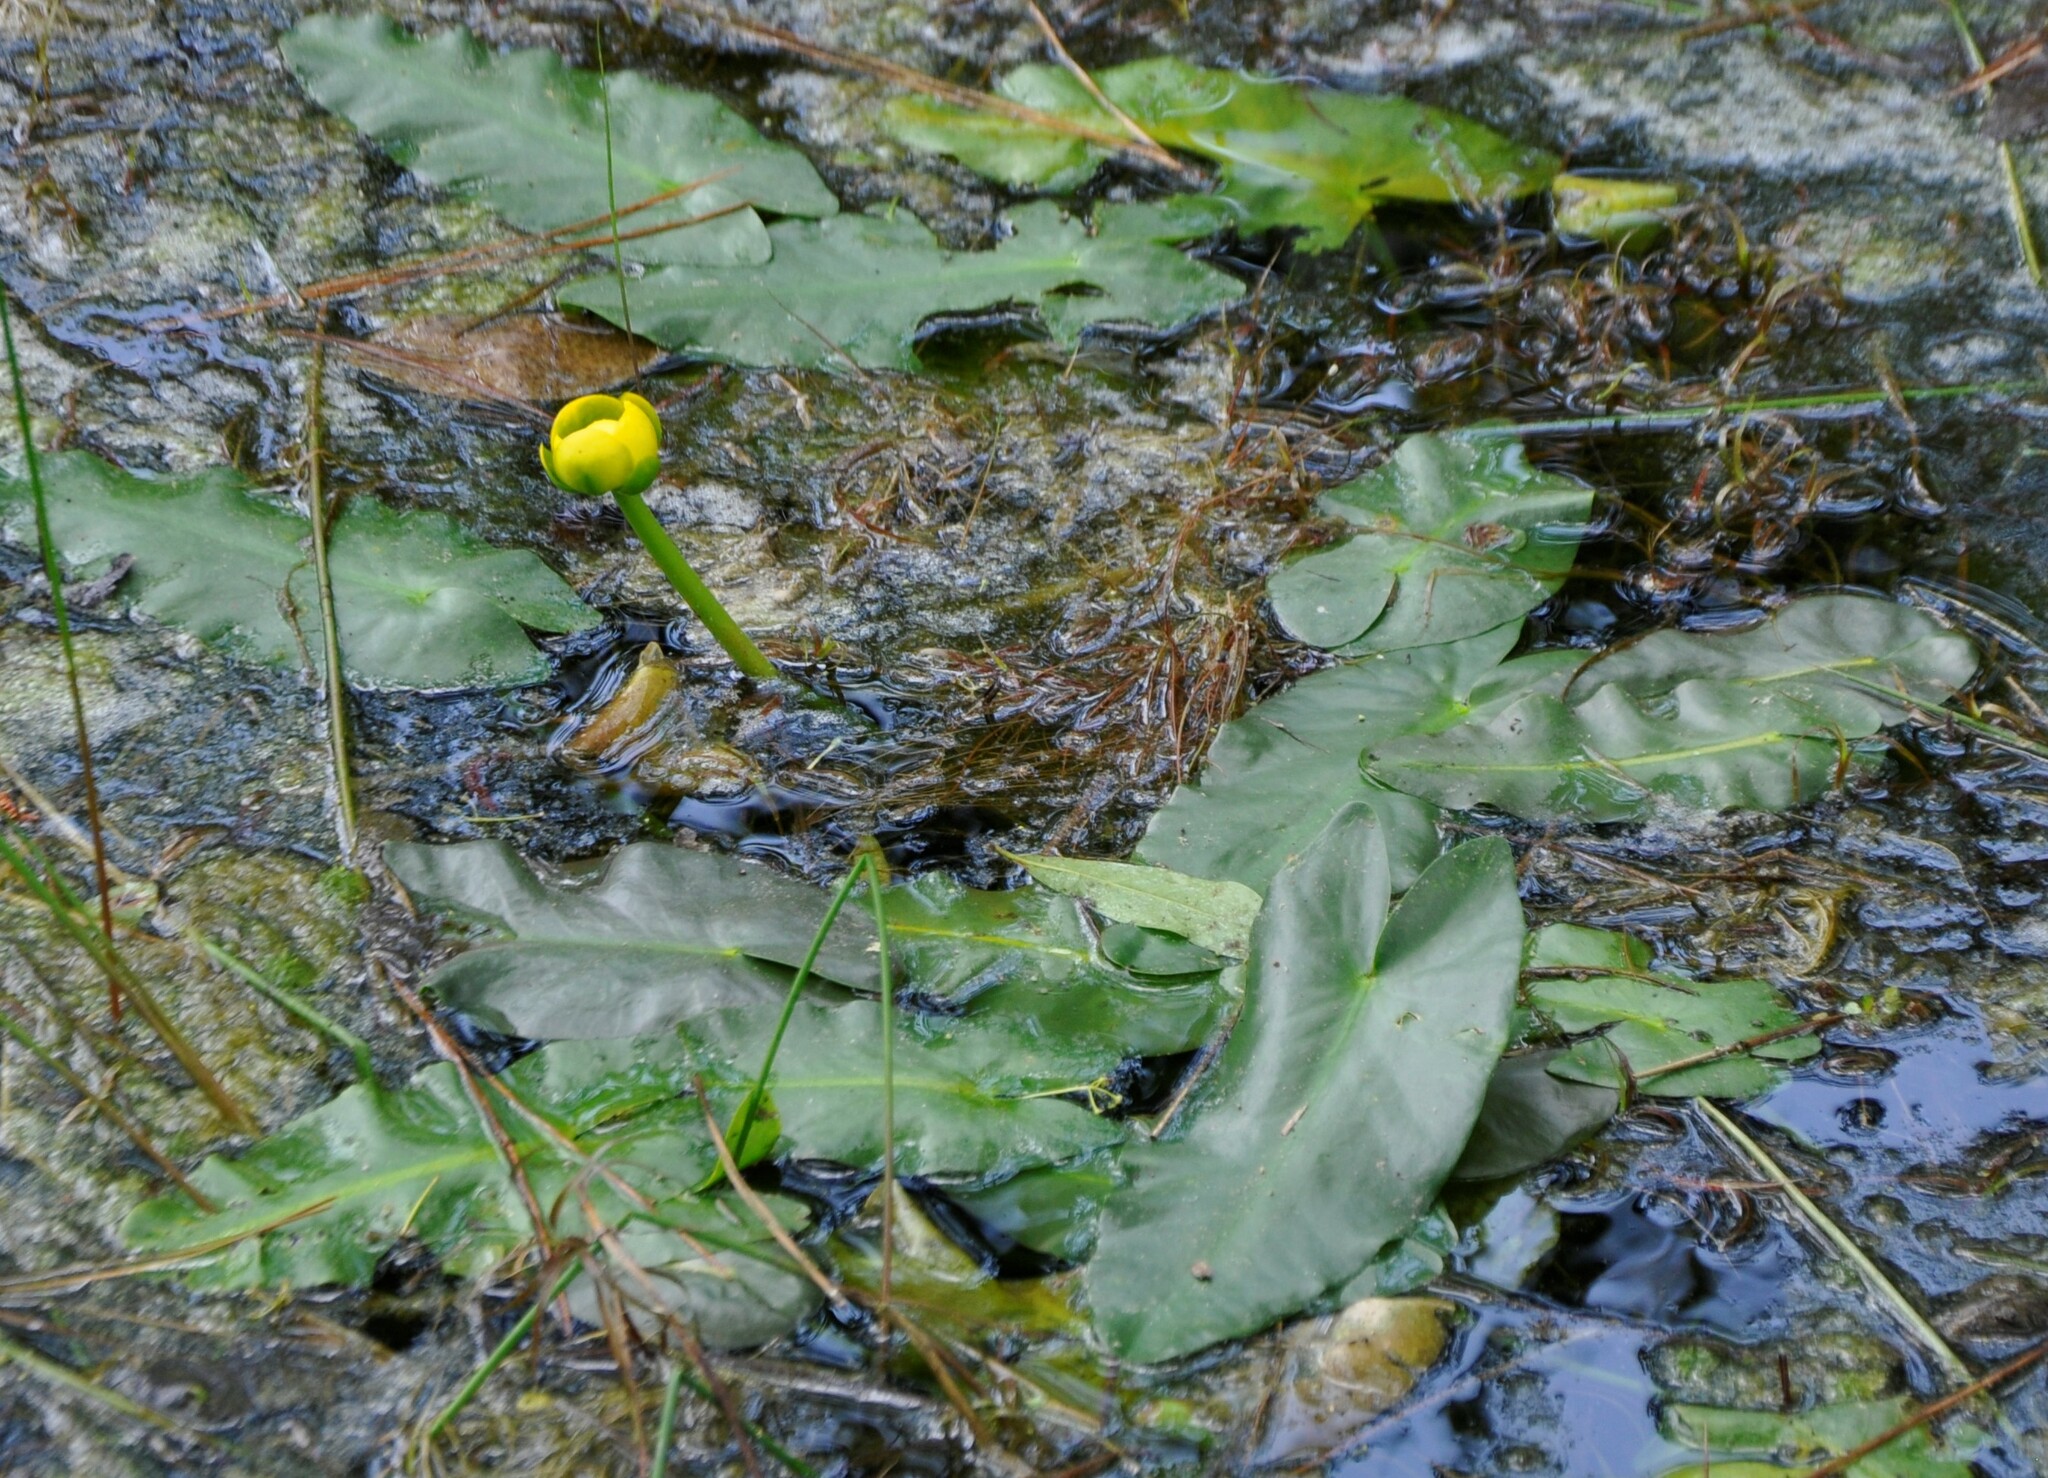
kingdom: Plantae
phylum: Tracheophyta
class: Magnoliopsida
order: Nymphaeales
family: Nymphaeaceae
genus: Nuphar
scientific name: Nuphar sagittifolia
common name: Cape fear spatterdock
